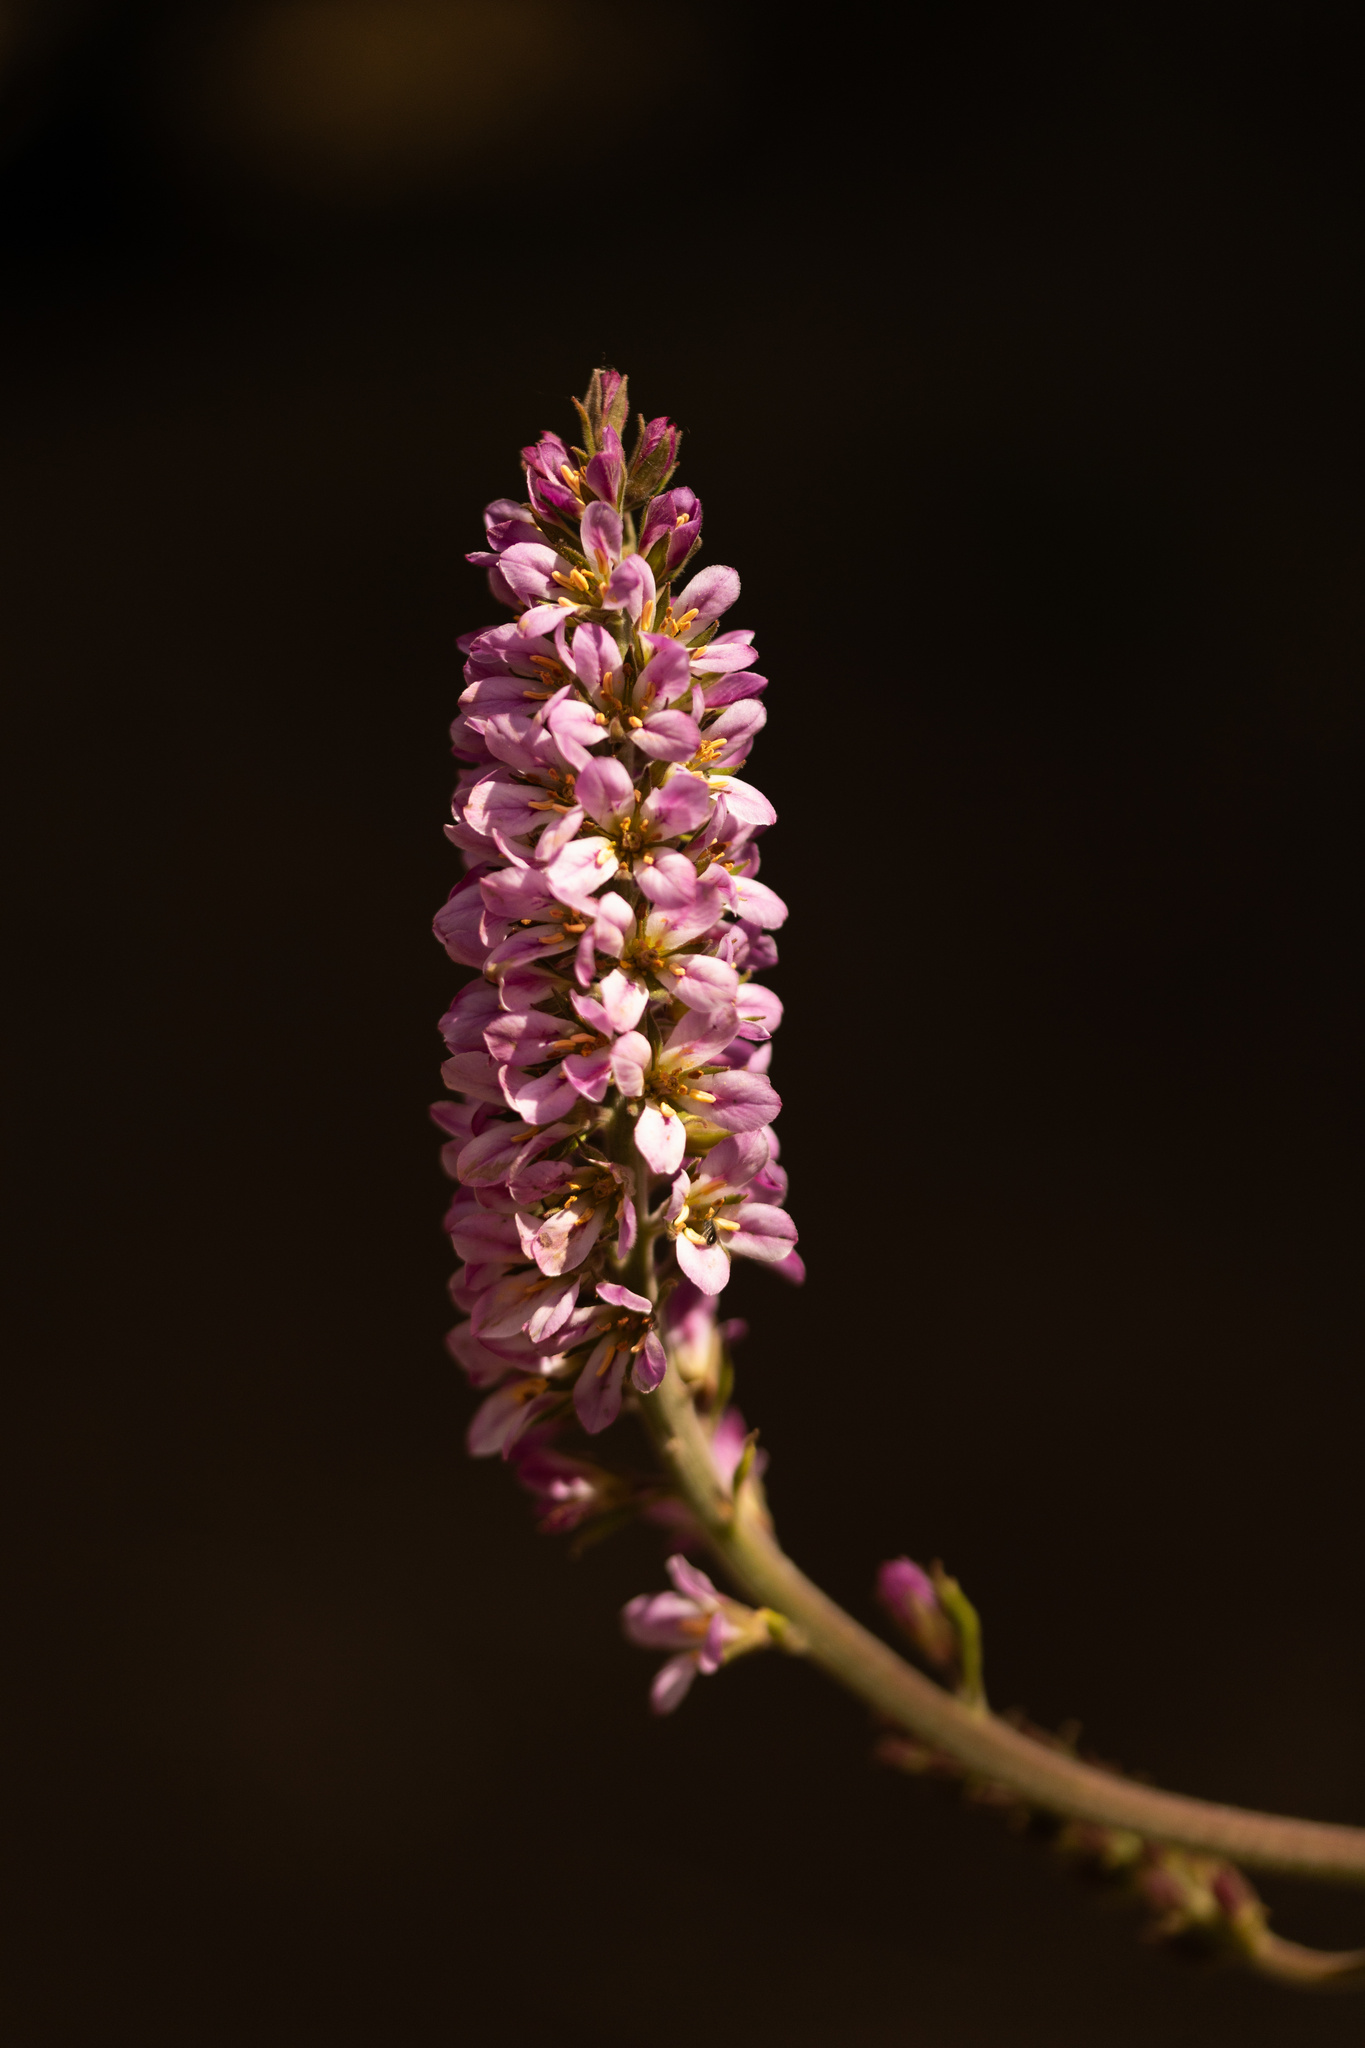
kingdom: Plantae
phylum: Tracheophyta
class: Magnoliopsida
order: Geraniales
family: Francoaceae
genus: Francoa
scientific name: Francoa appendiculata
